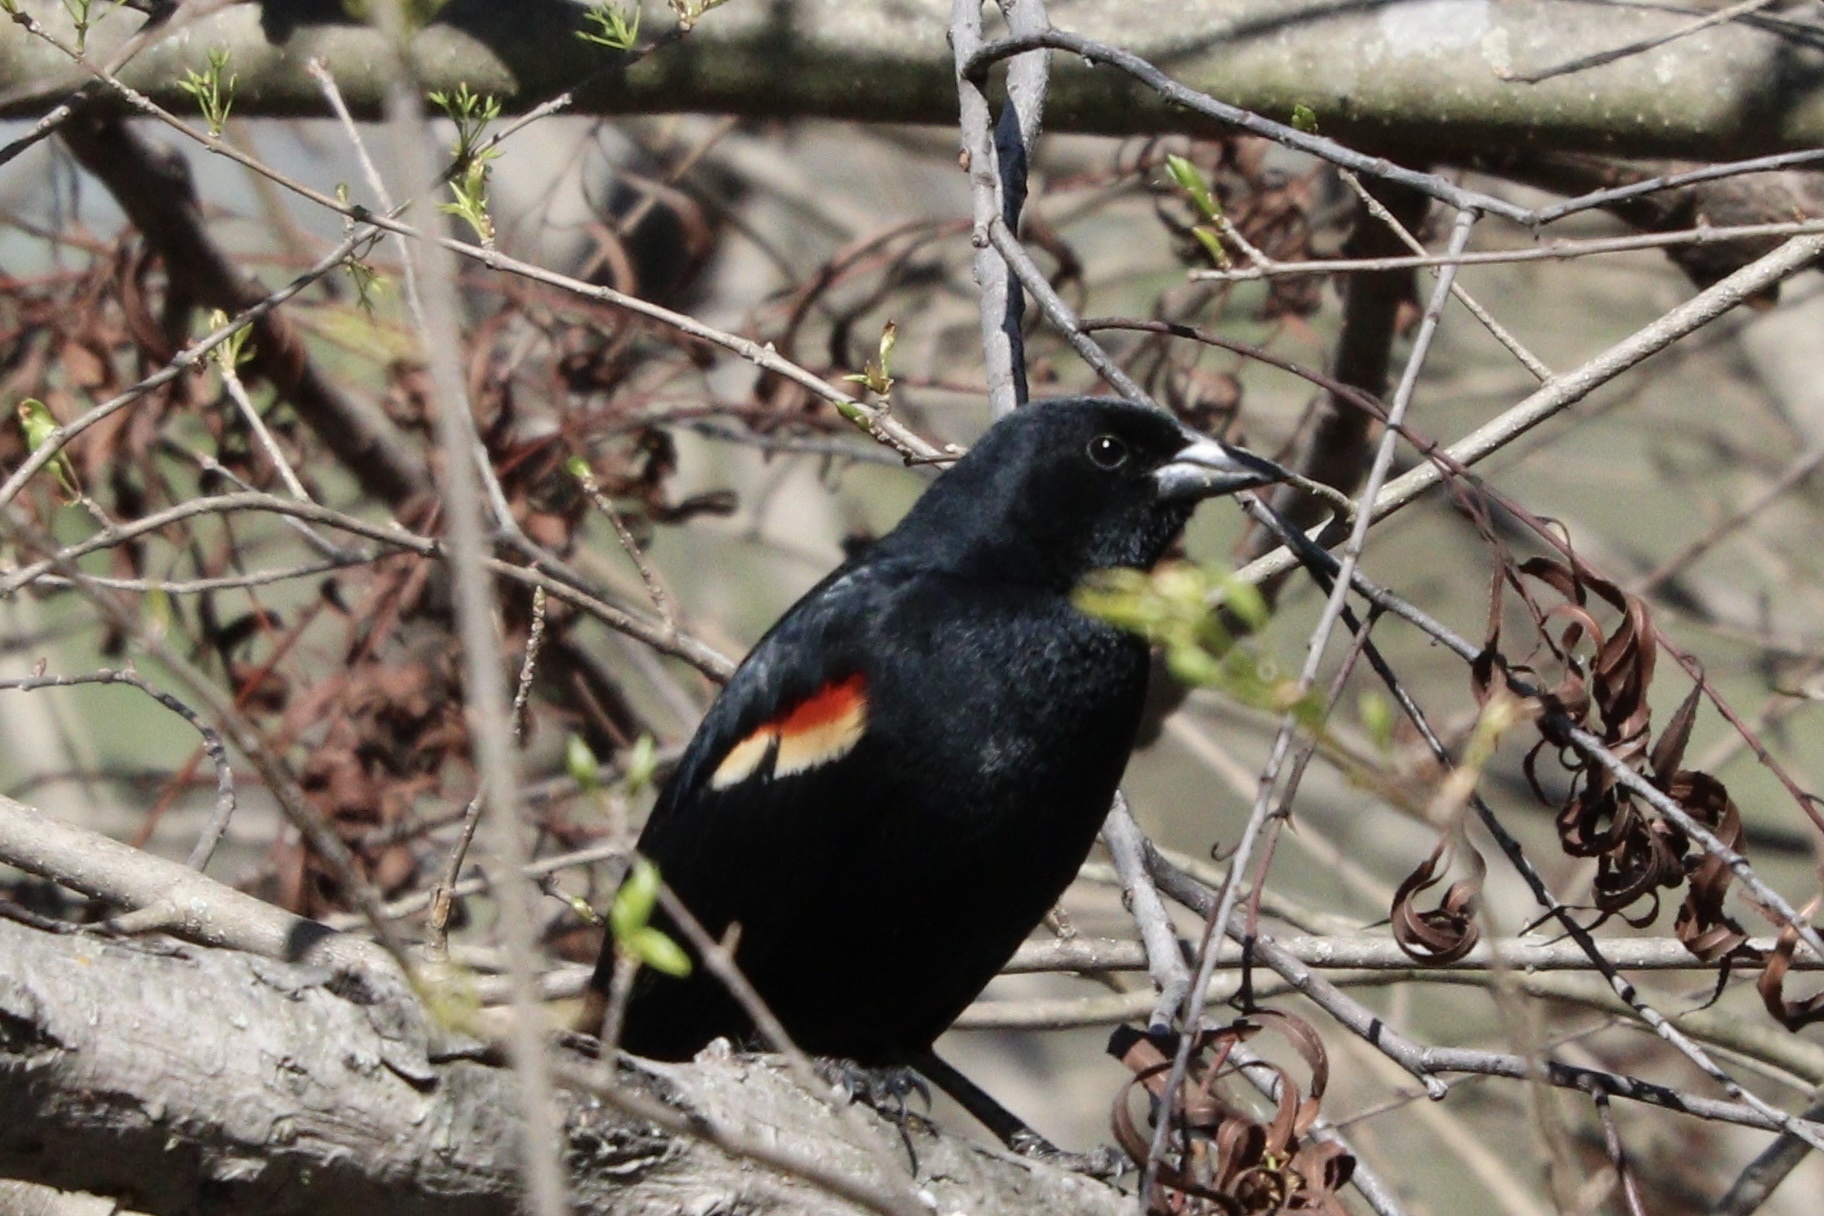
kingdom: Animalia
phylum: Chordata
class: Aves
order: Passeriformes
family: Icteridae
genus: Agelaius
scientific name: Agelaius phoeniceus
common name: Red-winged blackbird
